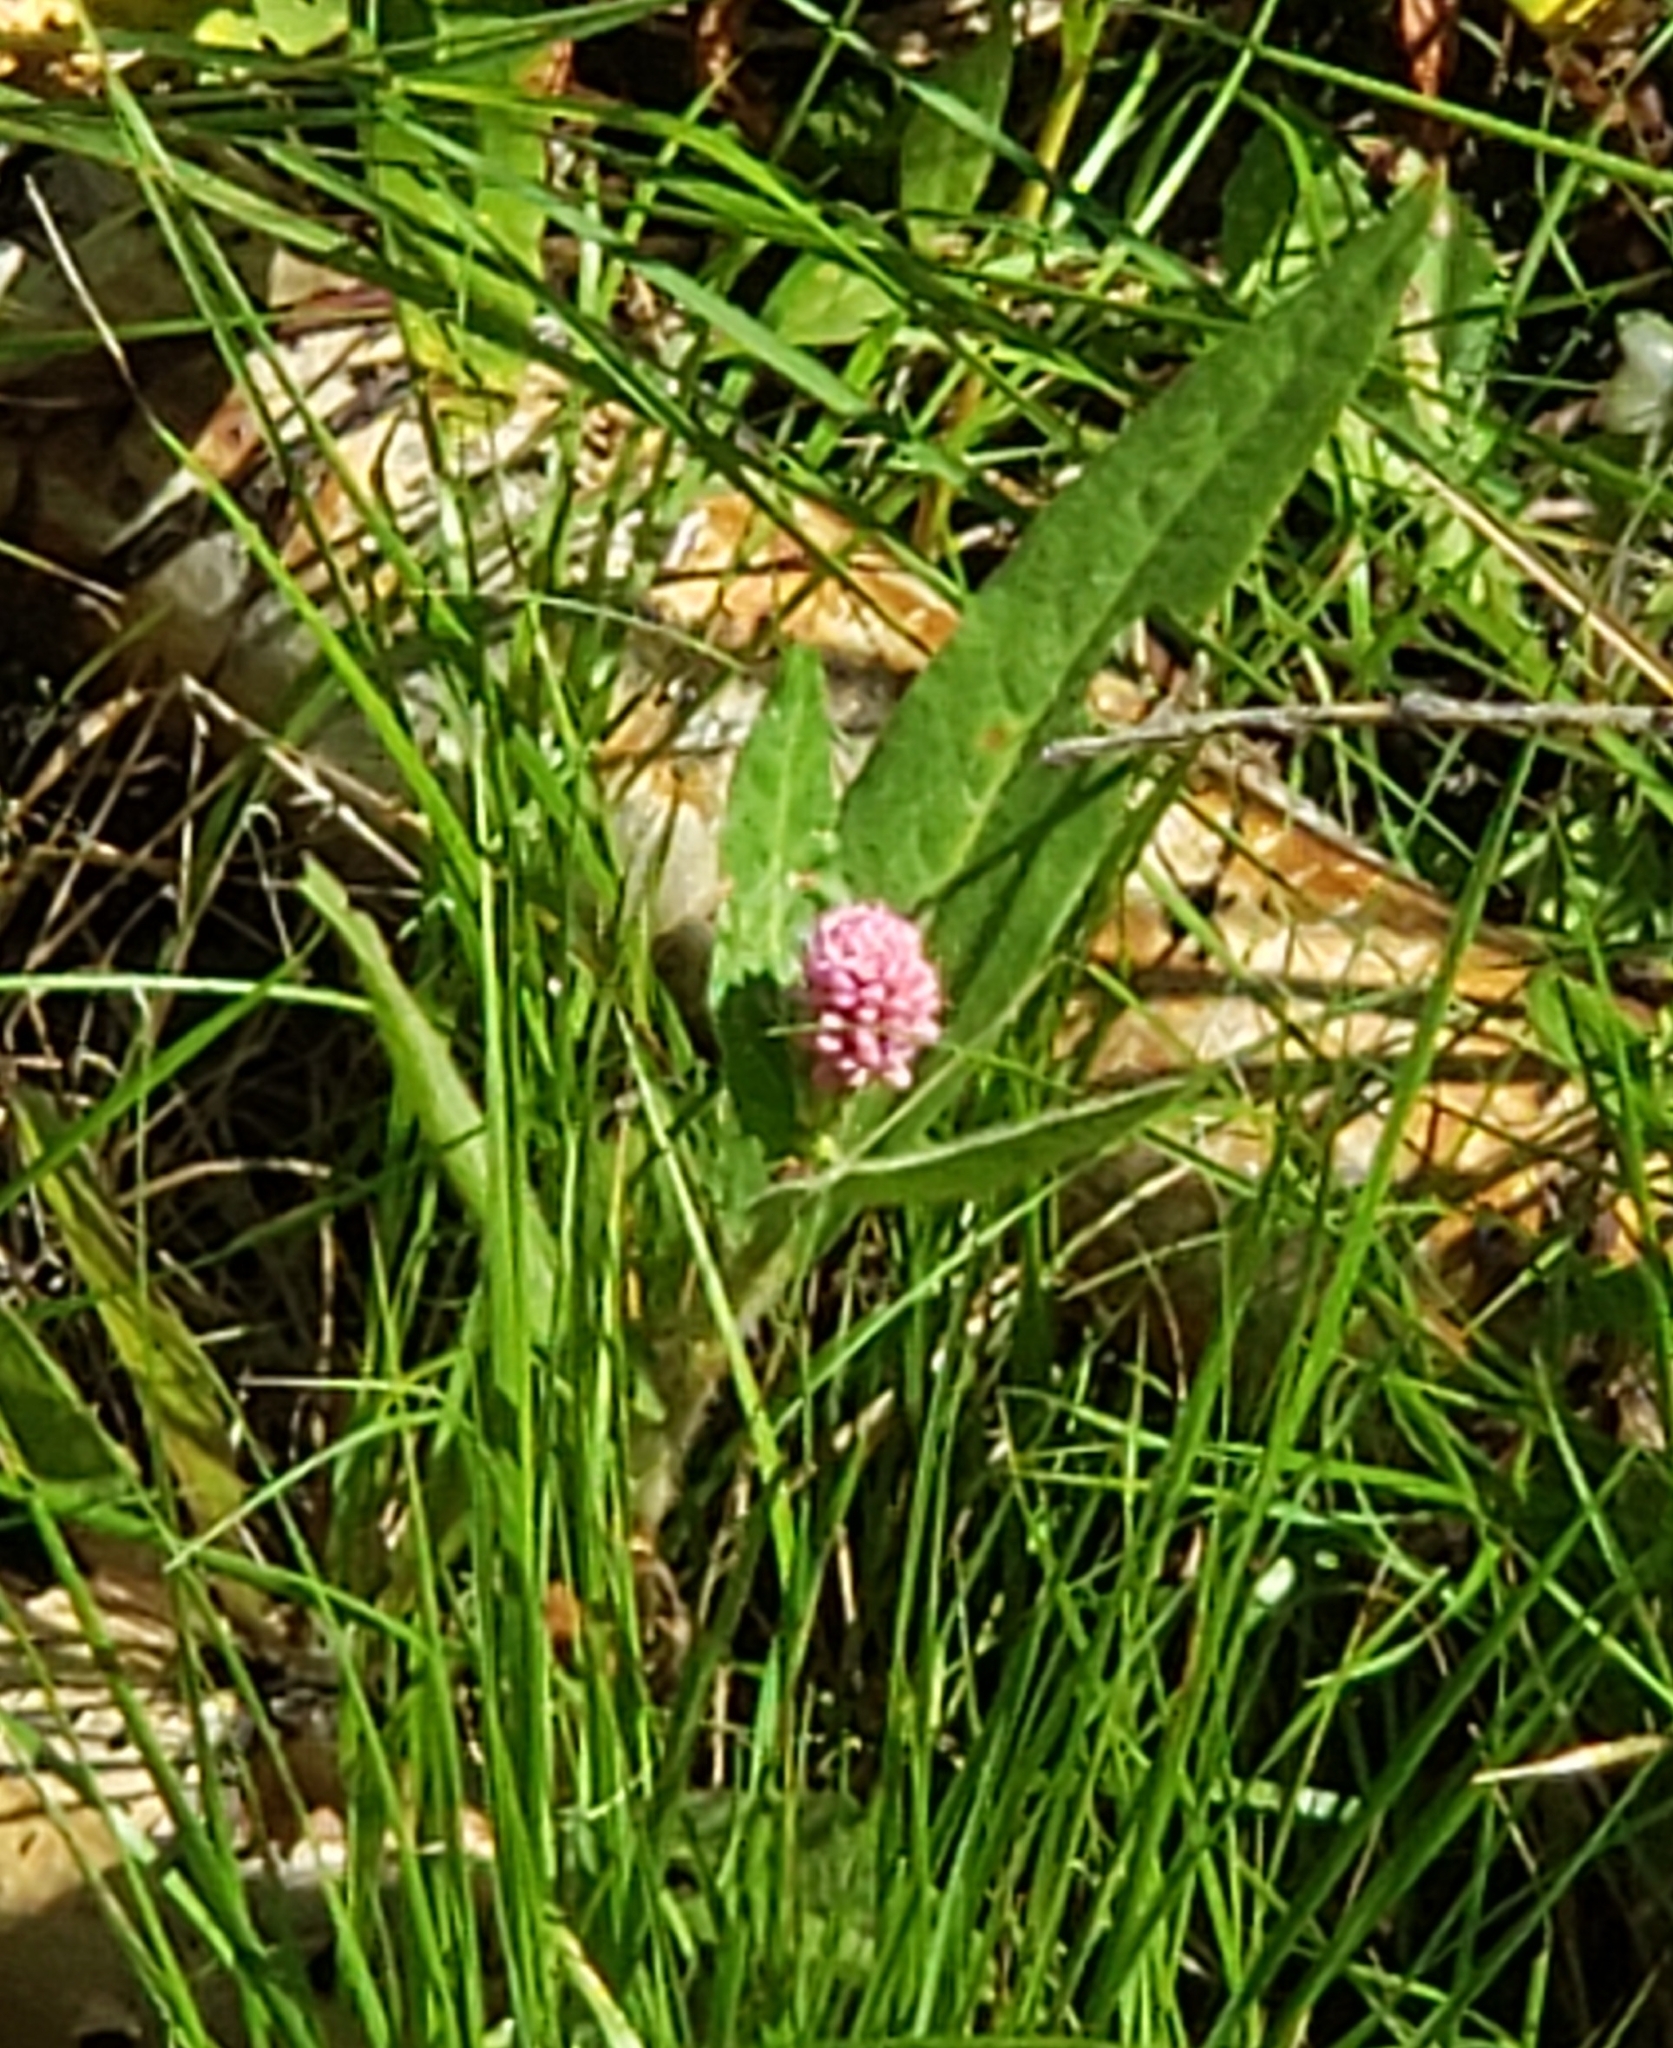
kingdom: Plantae
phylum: Tracheophyta
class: Magnoliopsida
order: Caryophyllales
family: Polygonaceae
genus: Persicaria
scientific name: Persicaria amphibia
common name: Amphibious bistort
